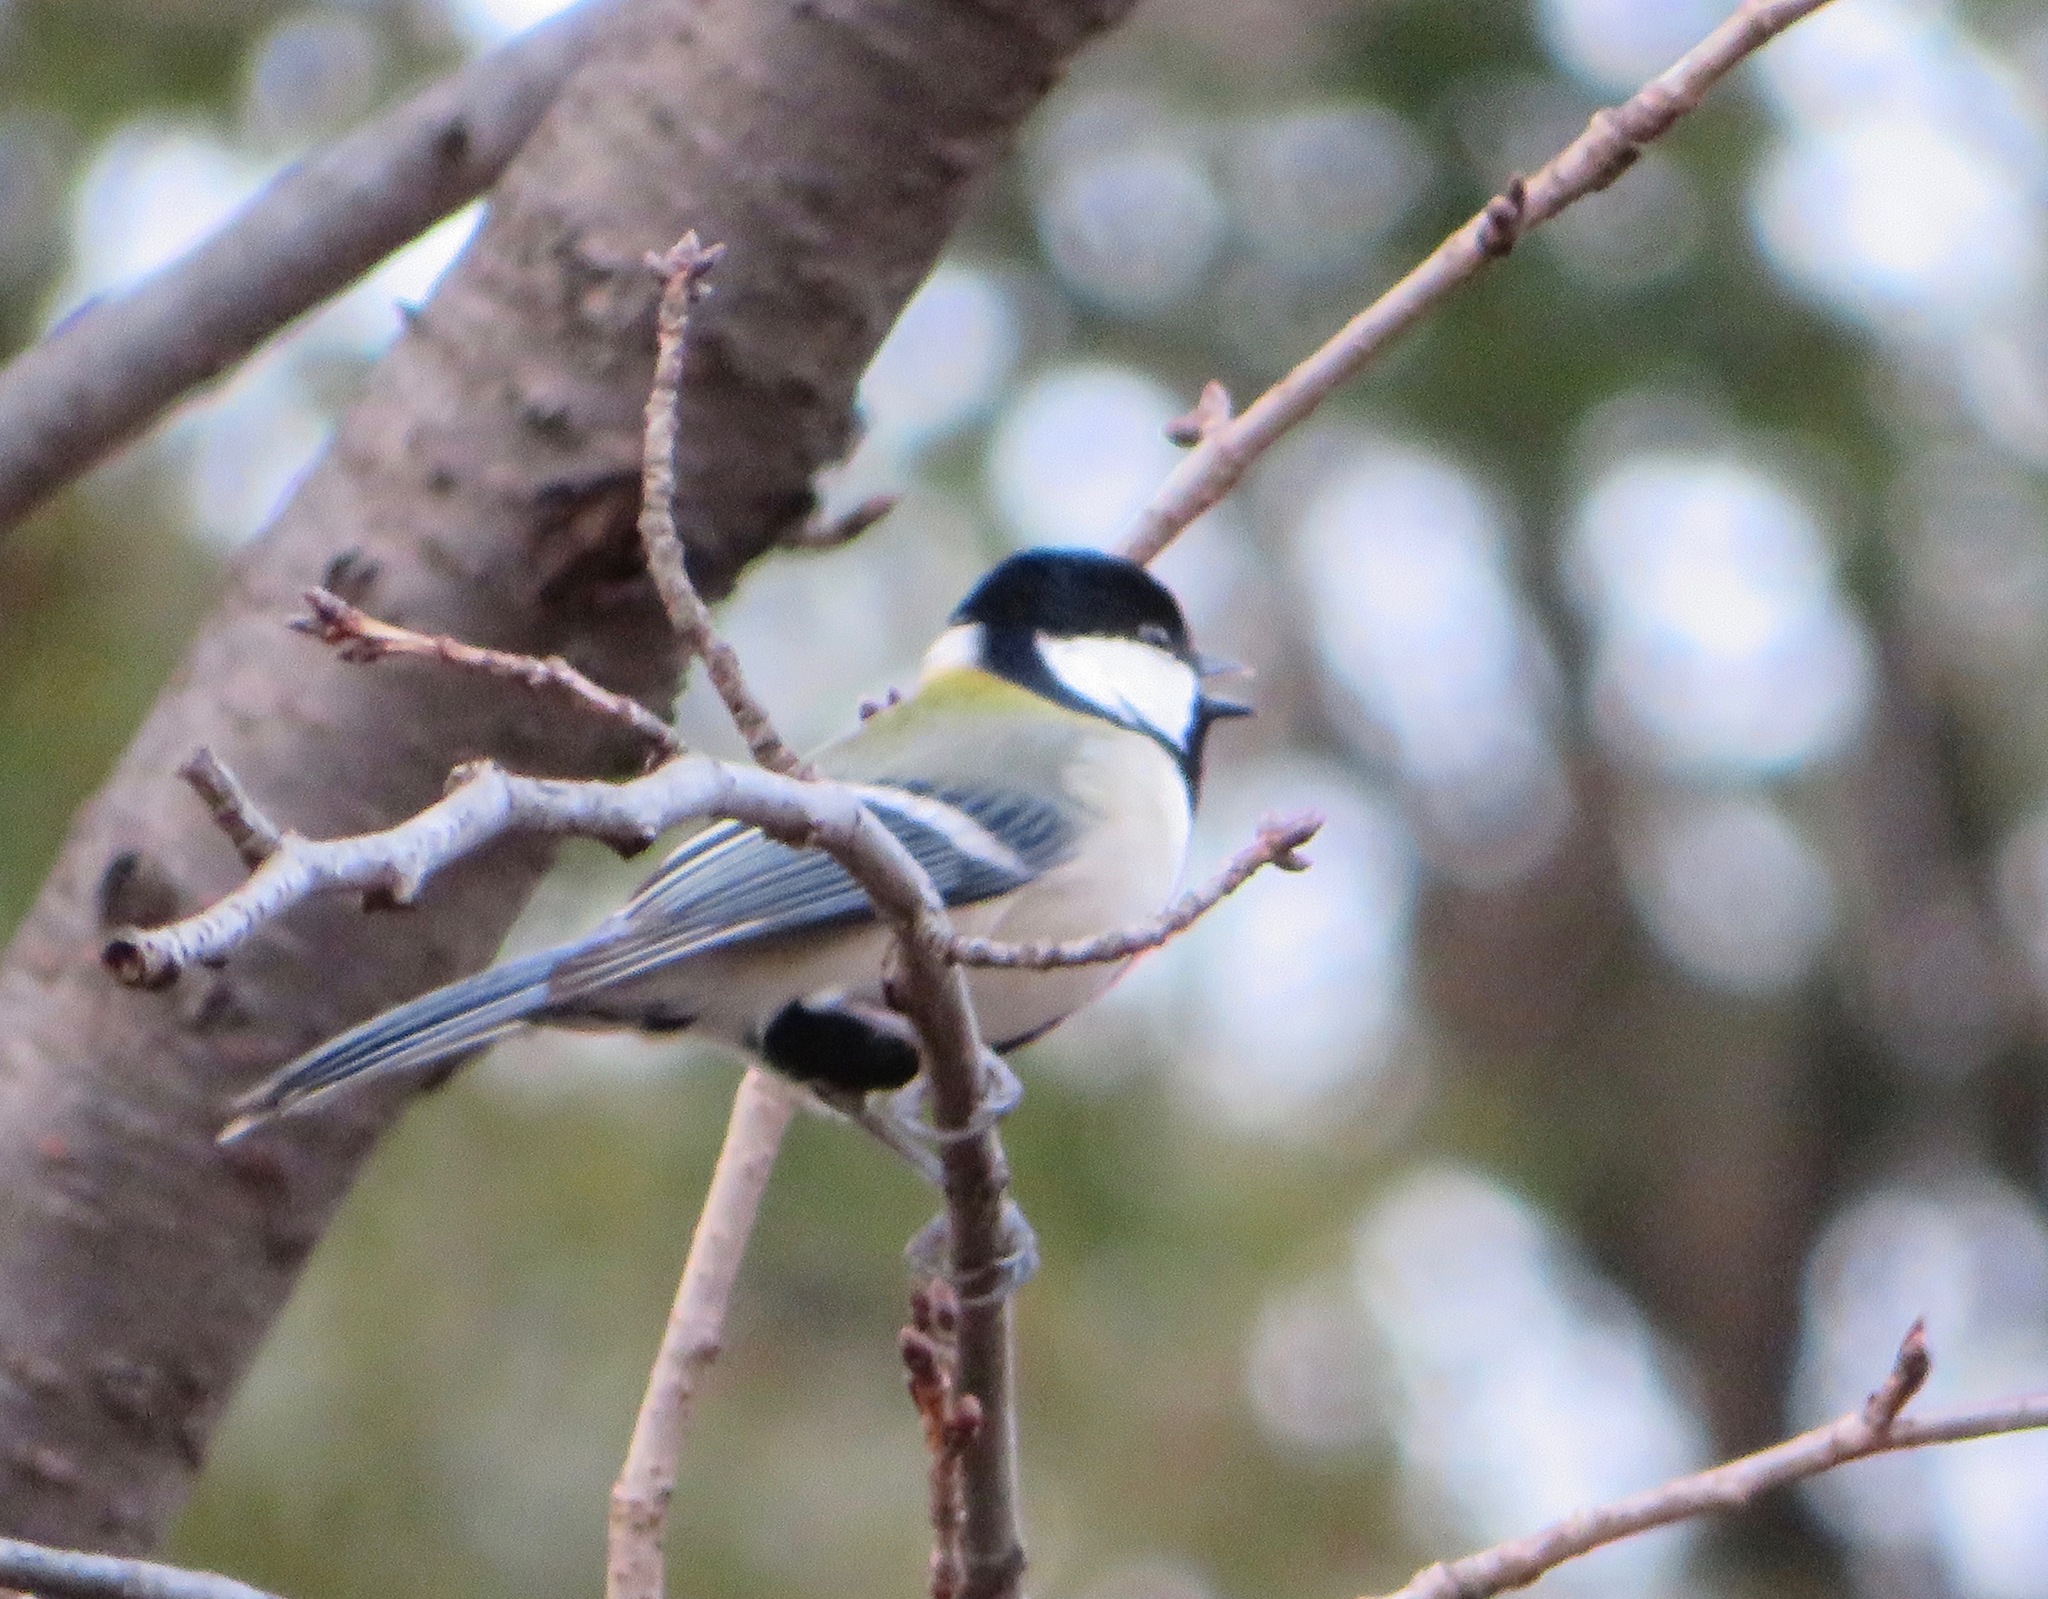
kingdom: Animalia
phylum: Chordata
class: Aves
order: Passeriformes
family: Paridae
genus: Parus
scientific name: Parus minor
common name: Japanese tit
